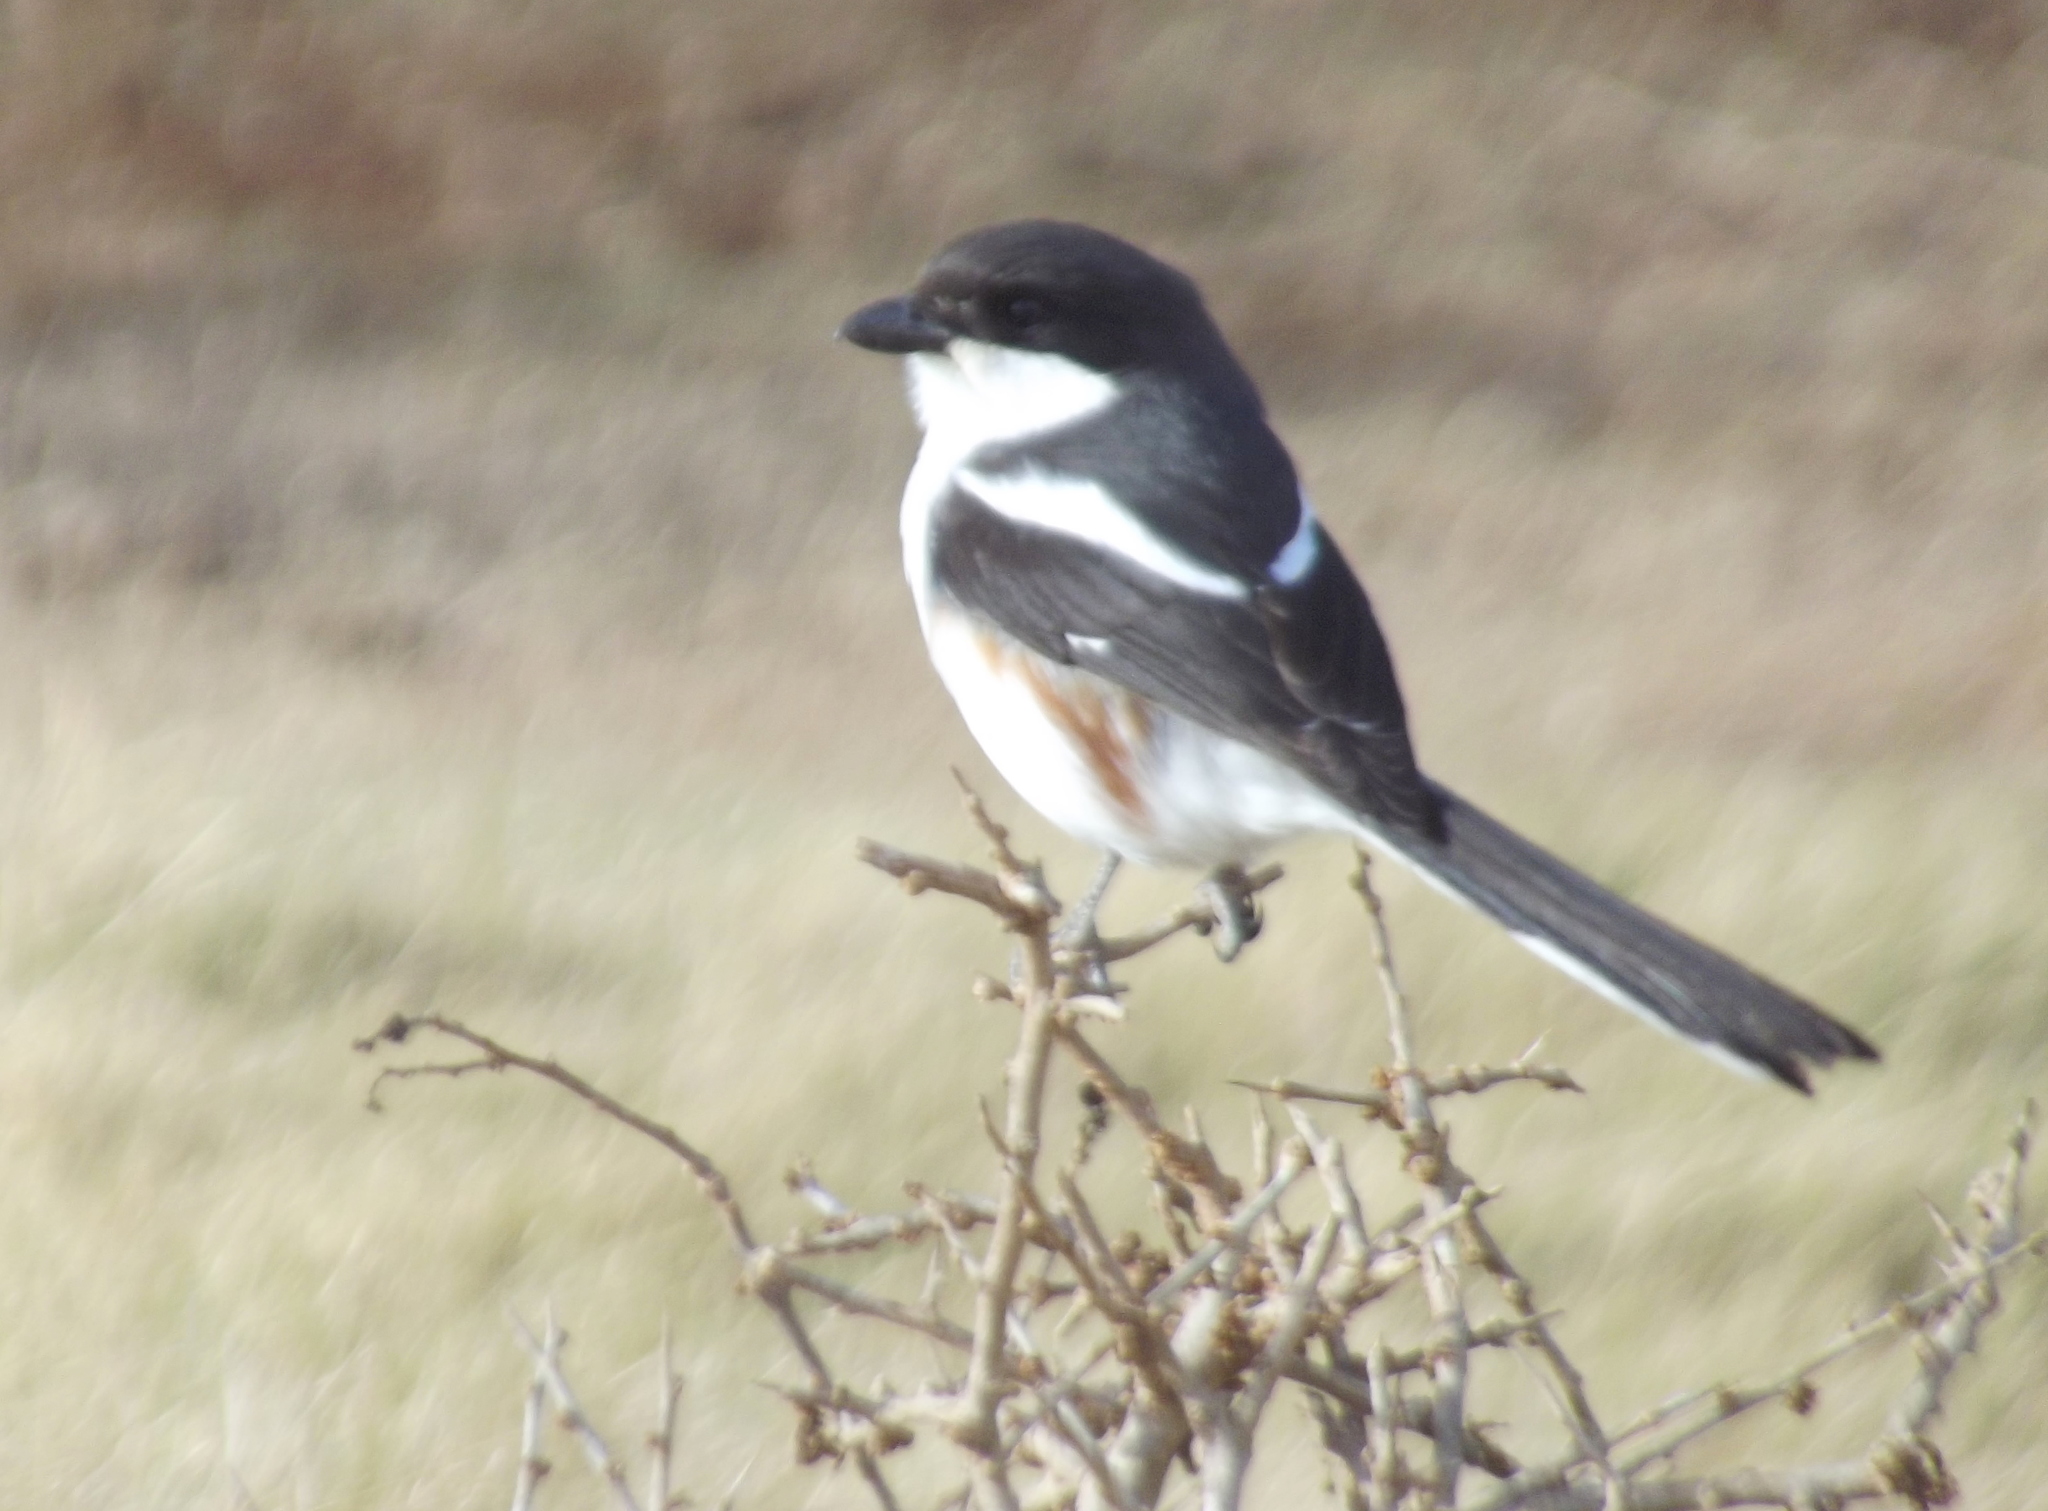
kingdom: Animalia
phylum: Chordata
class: Aves
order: Passeriformes
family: Laniidae
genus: Lanius
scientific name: Lanius collaris
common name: Southern fiscal
